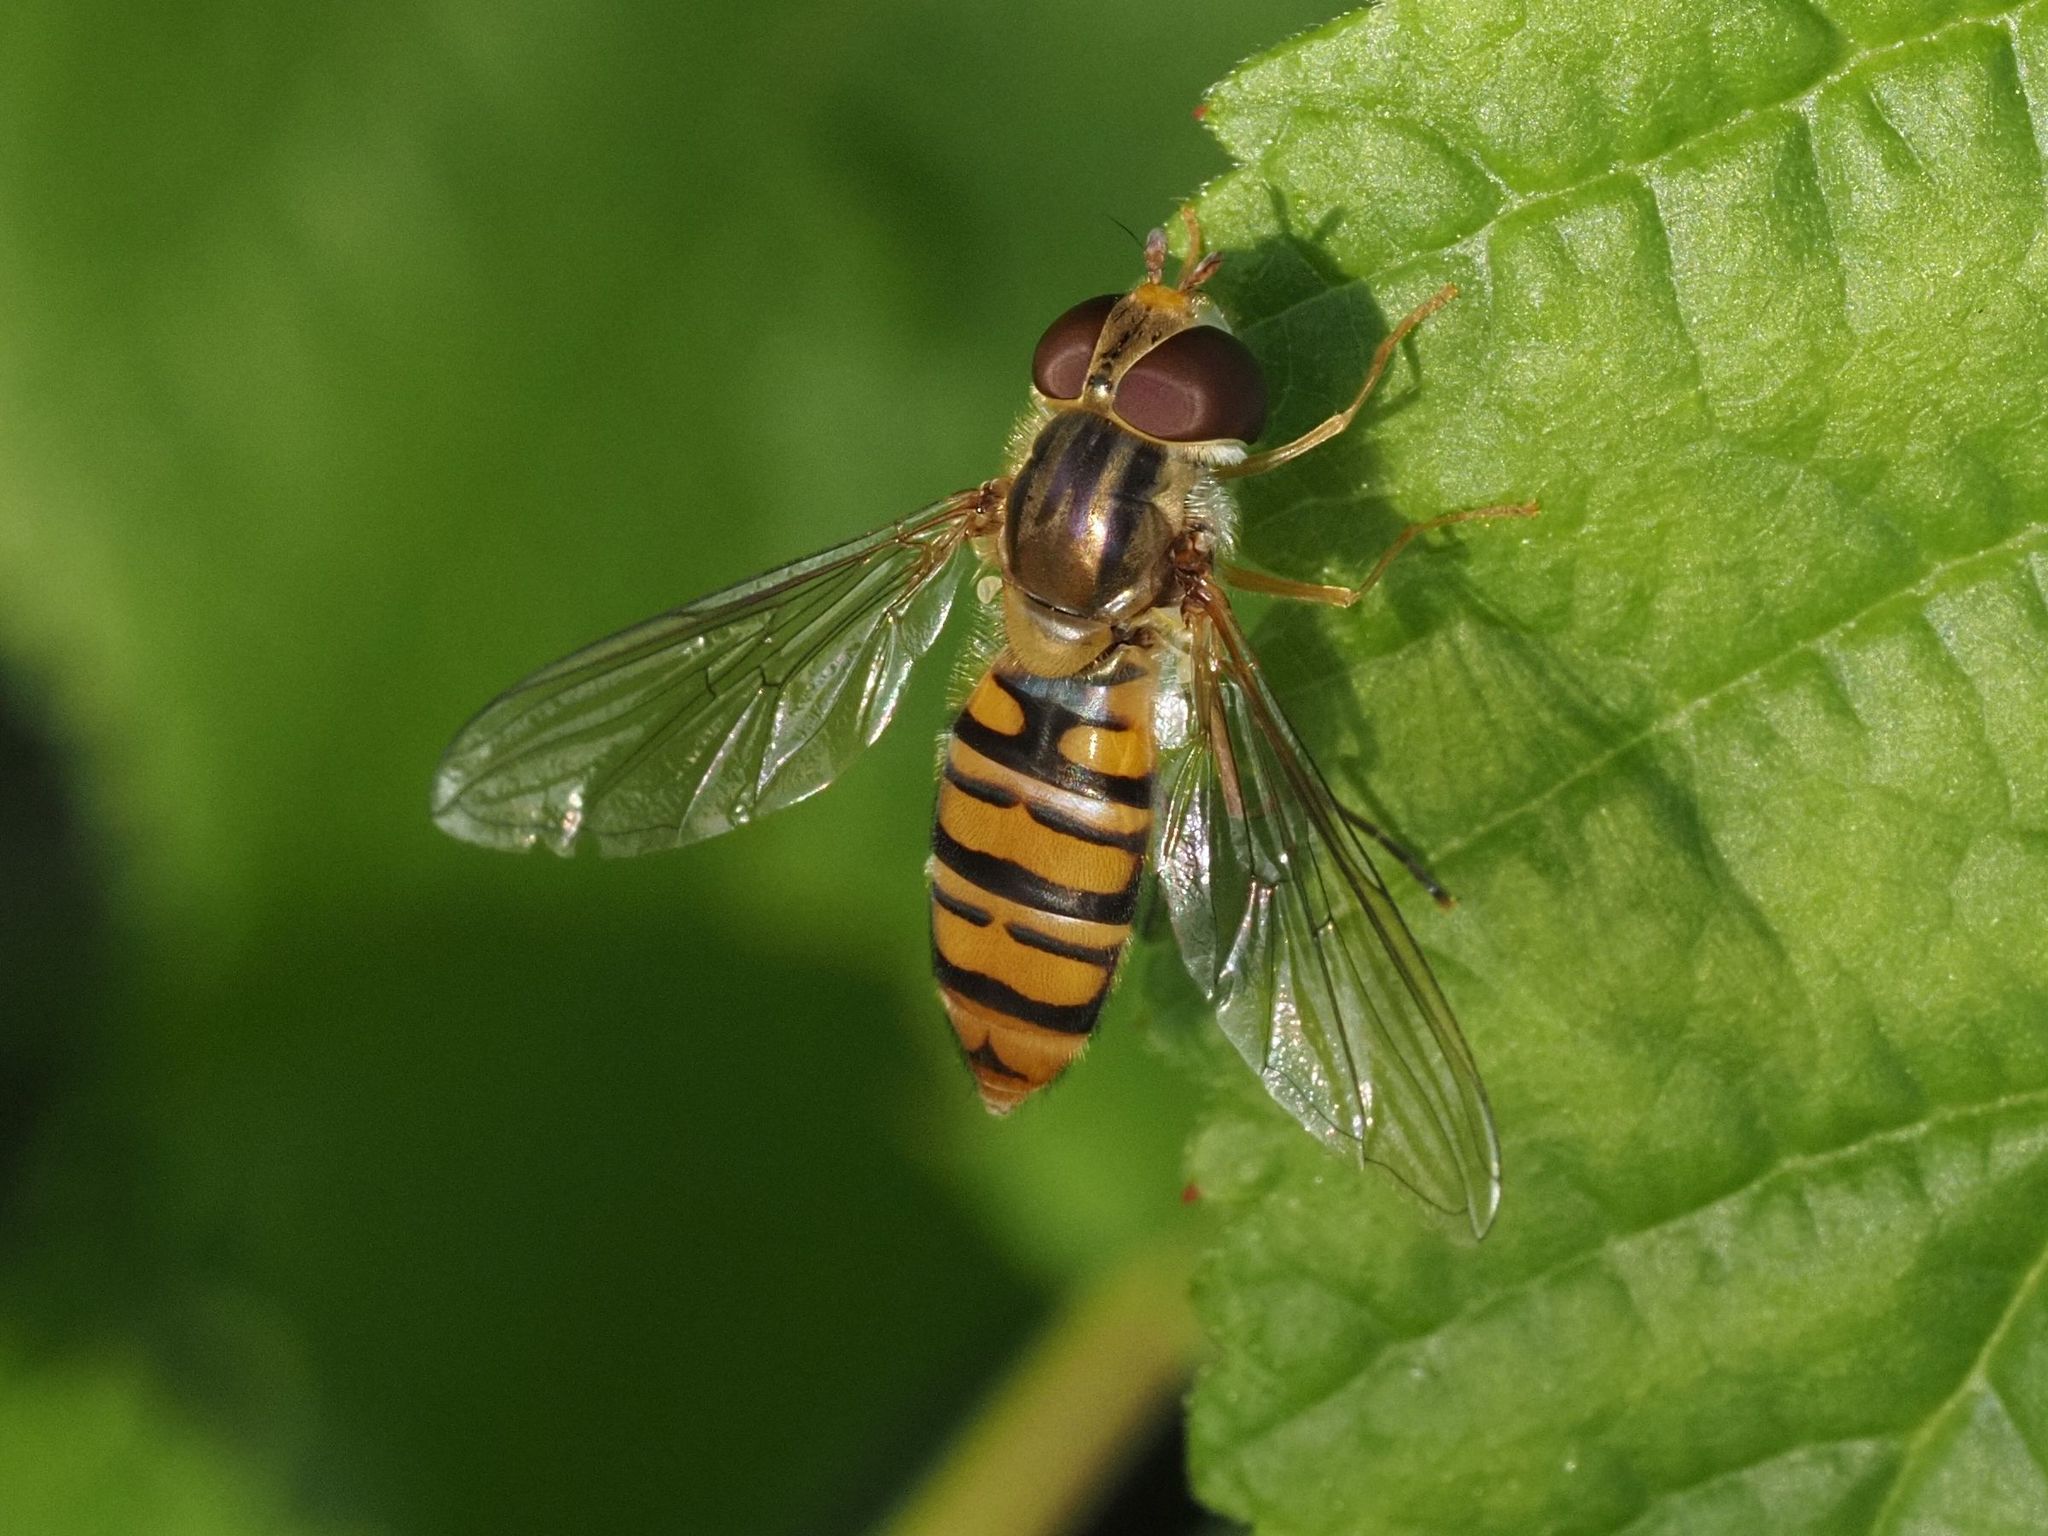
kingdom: Animalia
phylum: Arthropoda
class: Insecta
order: Diptera
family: Syrphidae
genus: Episyrphus
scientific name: Episyrphus balteatus
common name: Marmalade hoverfly
